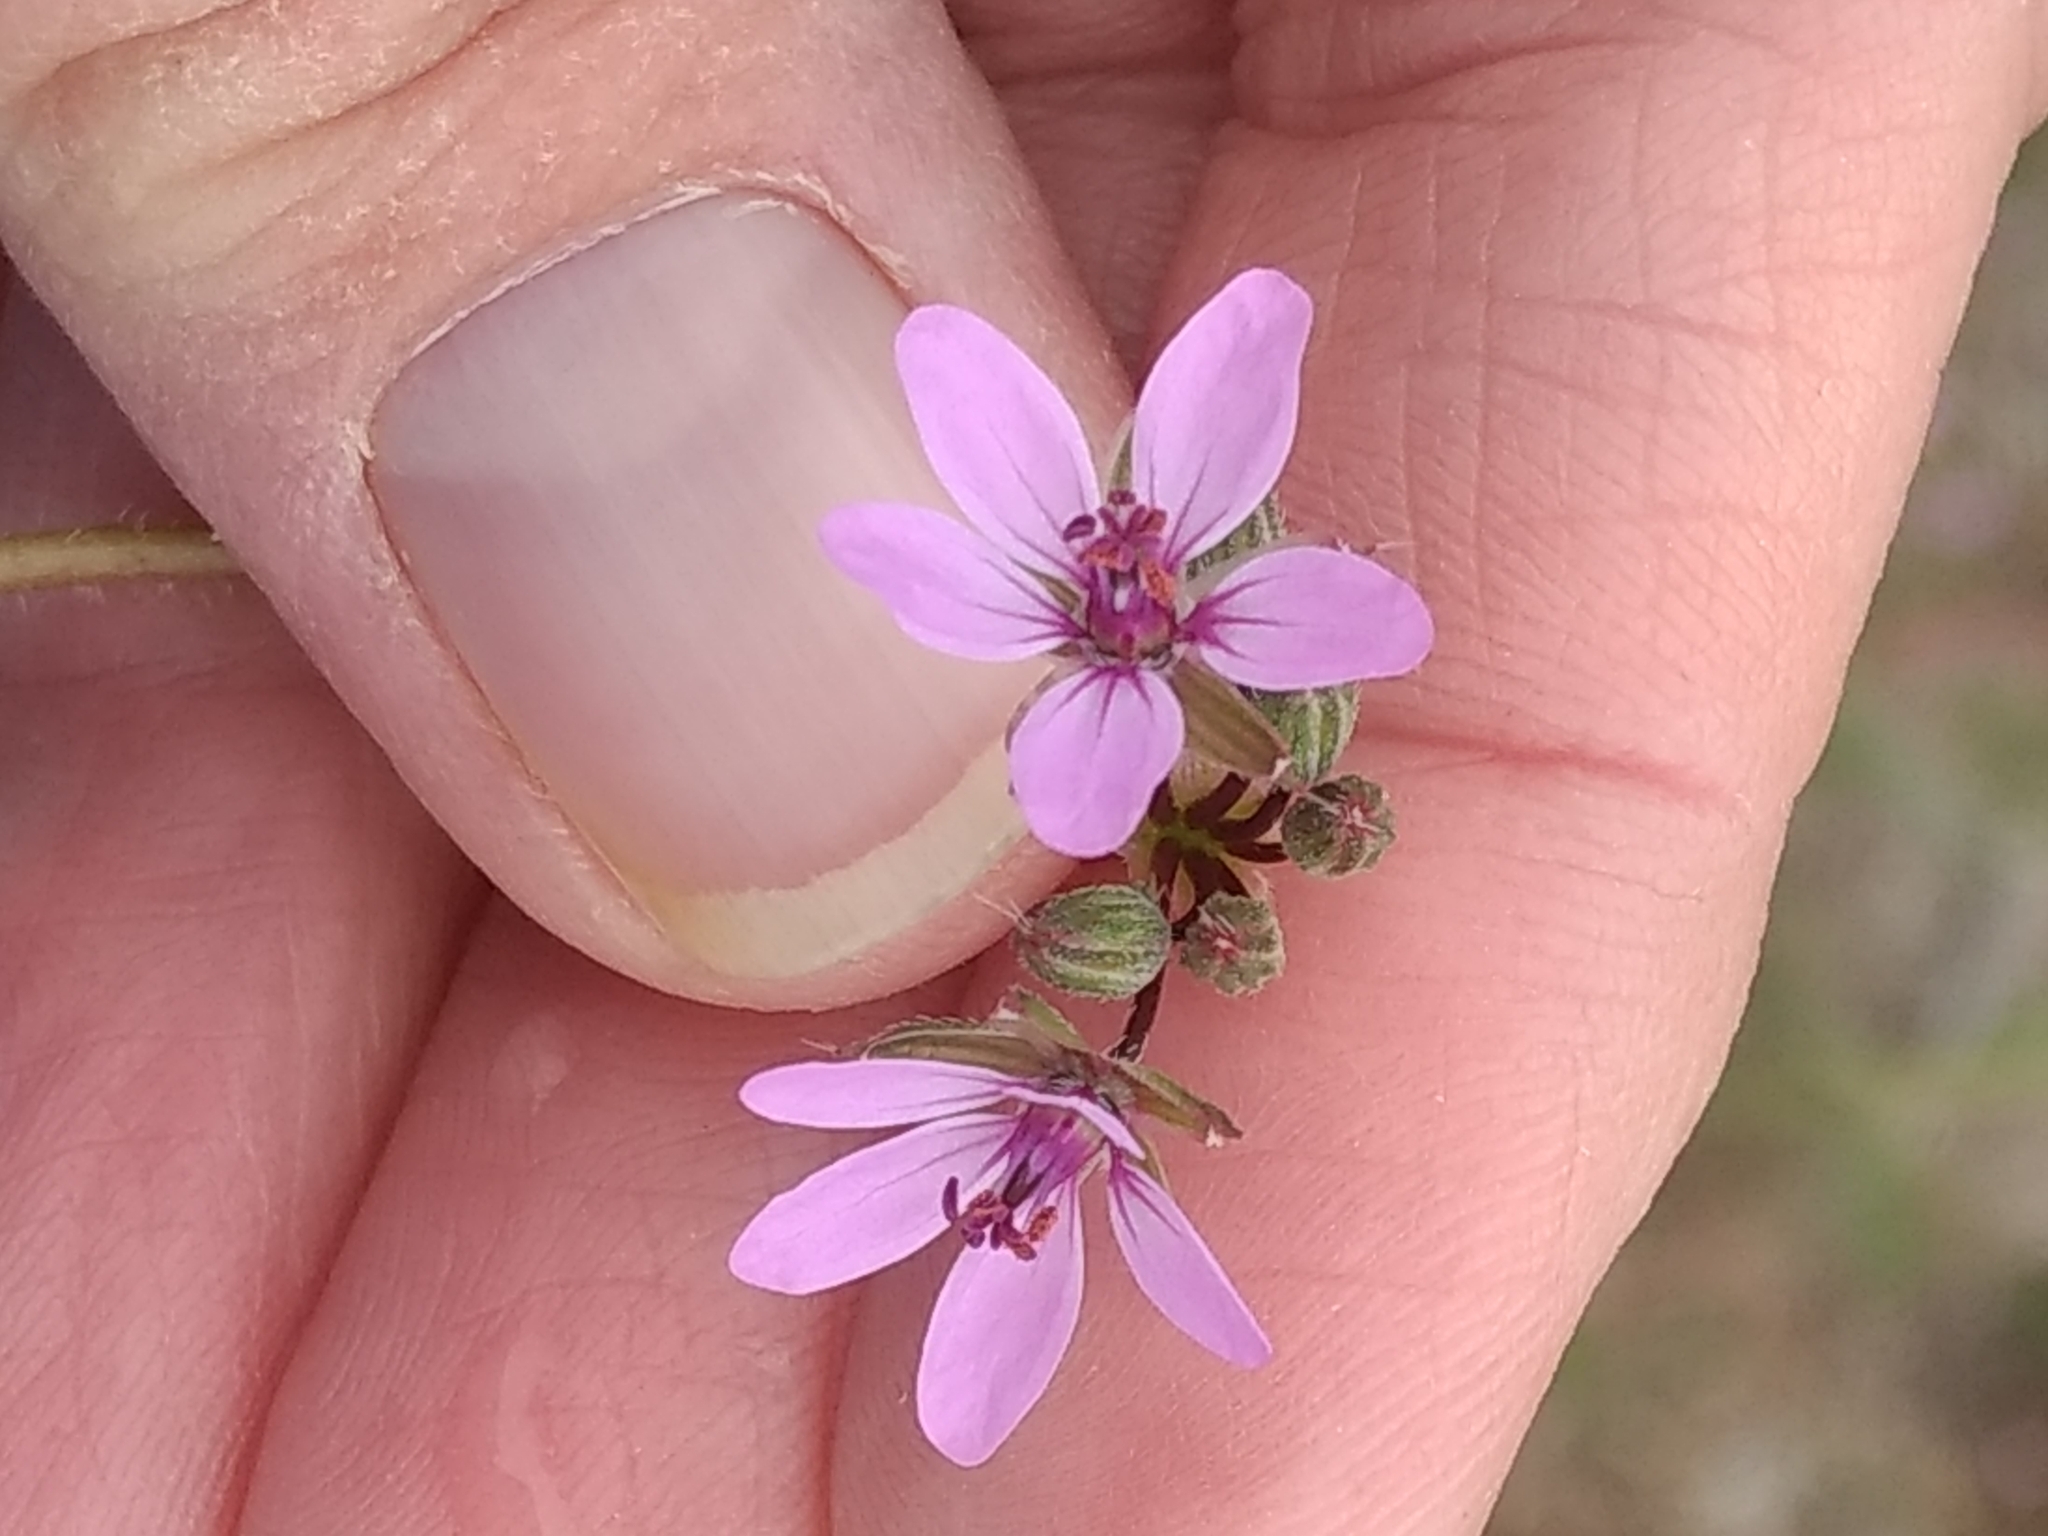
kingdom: Plantae
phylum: Tracheophyta
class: Magnoliopsida
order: Geraniales
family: Geraniaceae
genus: Erodium
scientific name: Erodium cicutarium
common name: Common stork's-bill
